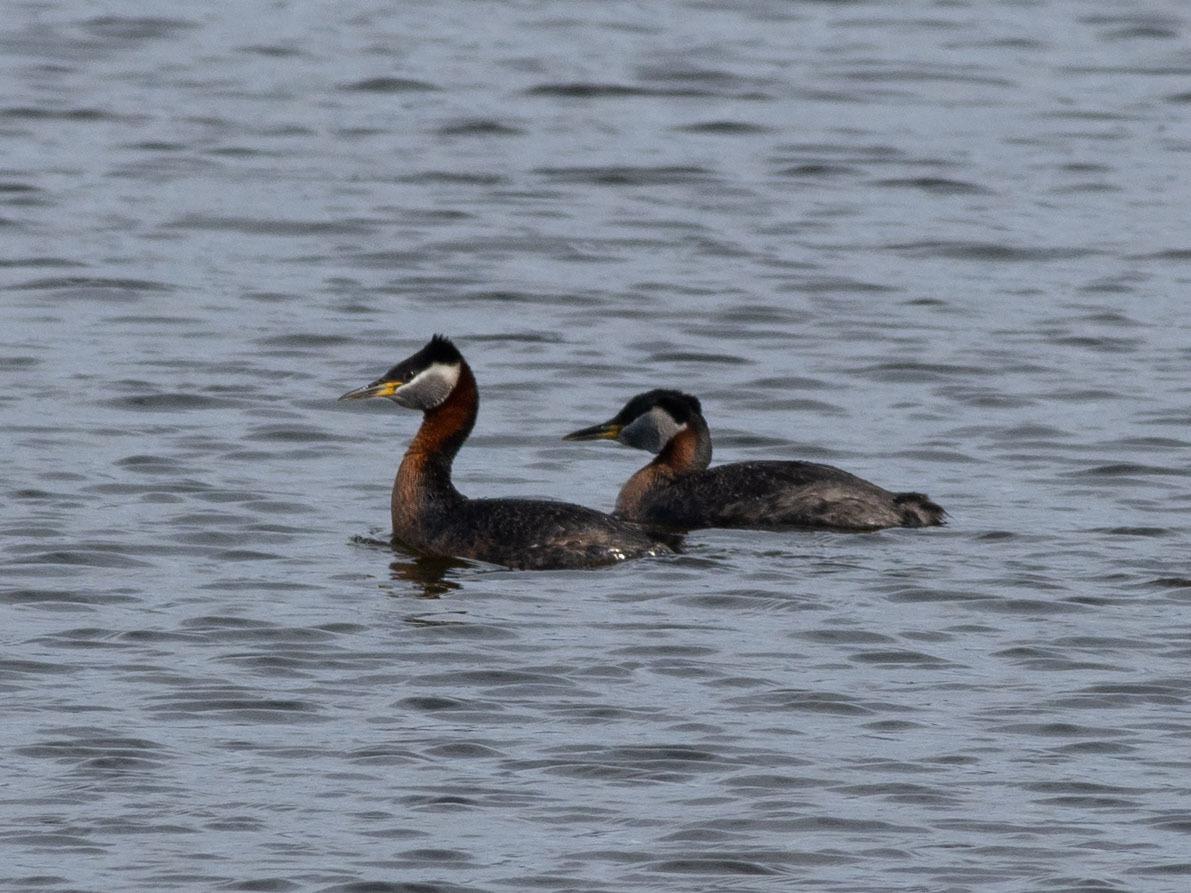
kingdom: Animalia
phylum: Chordata
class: Aves
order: Podicipediformes
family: Podicipedidae
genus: Podiceps
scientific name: Podiceps grisegena
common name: Red-necked grebe
